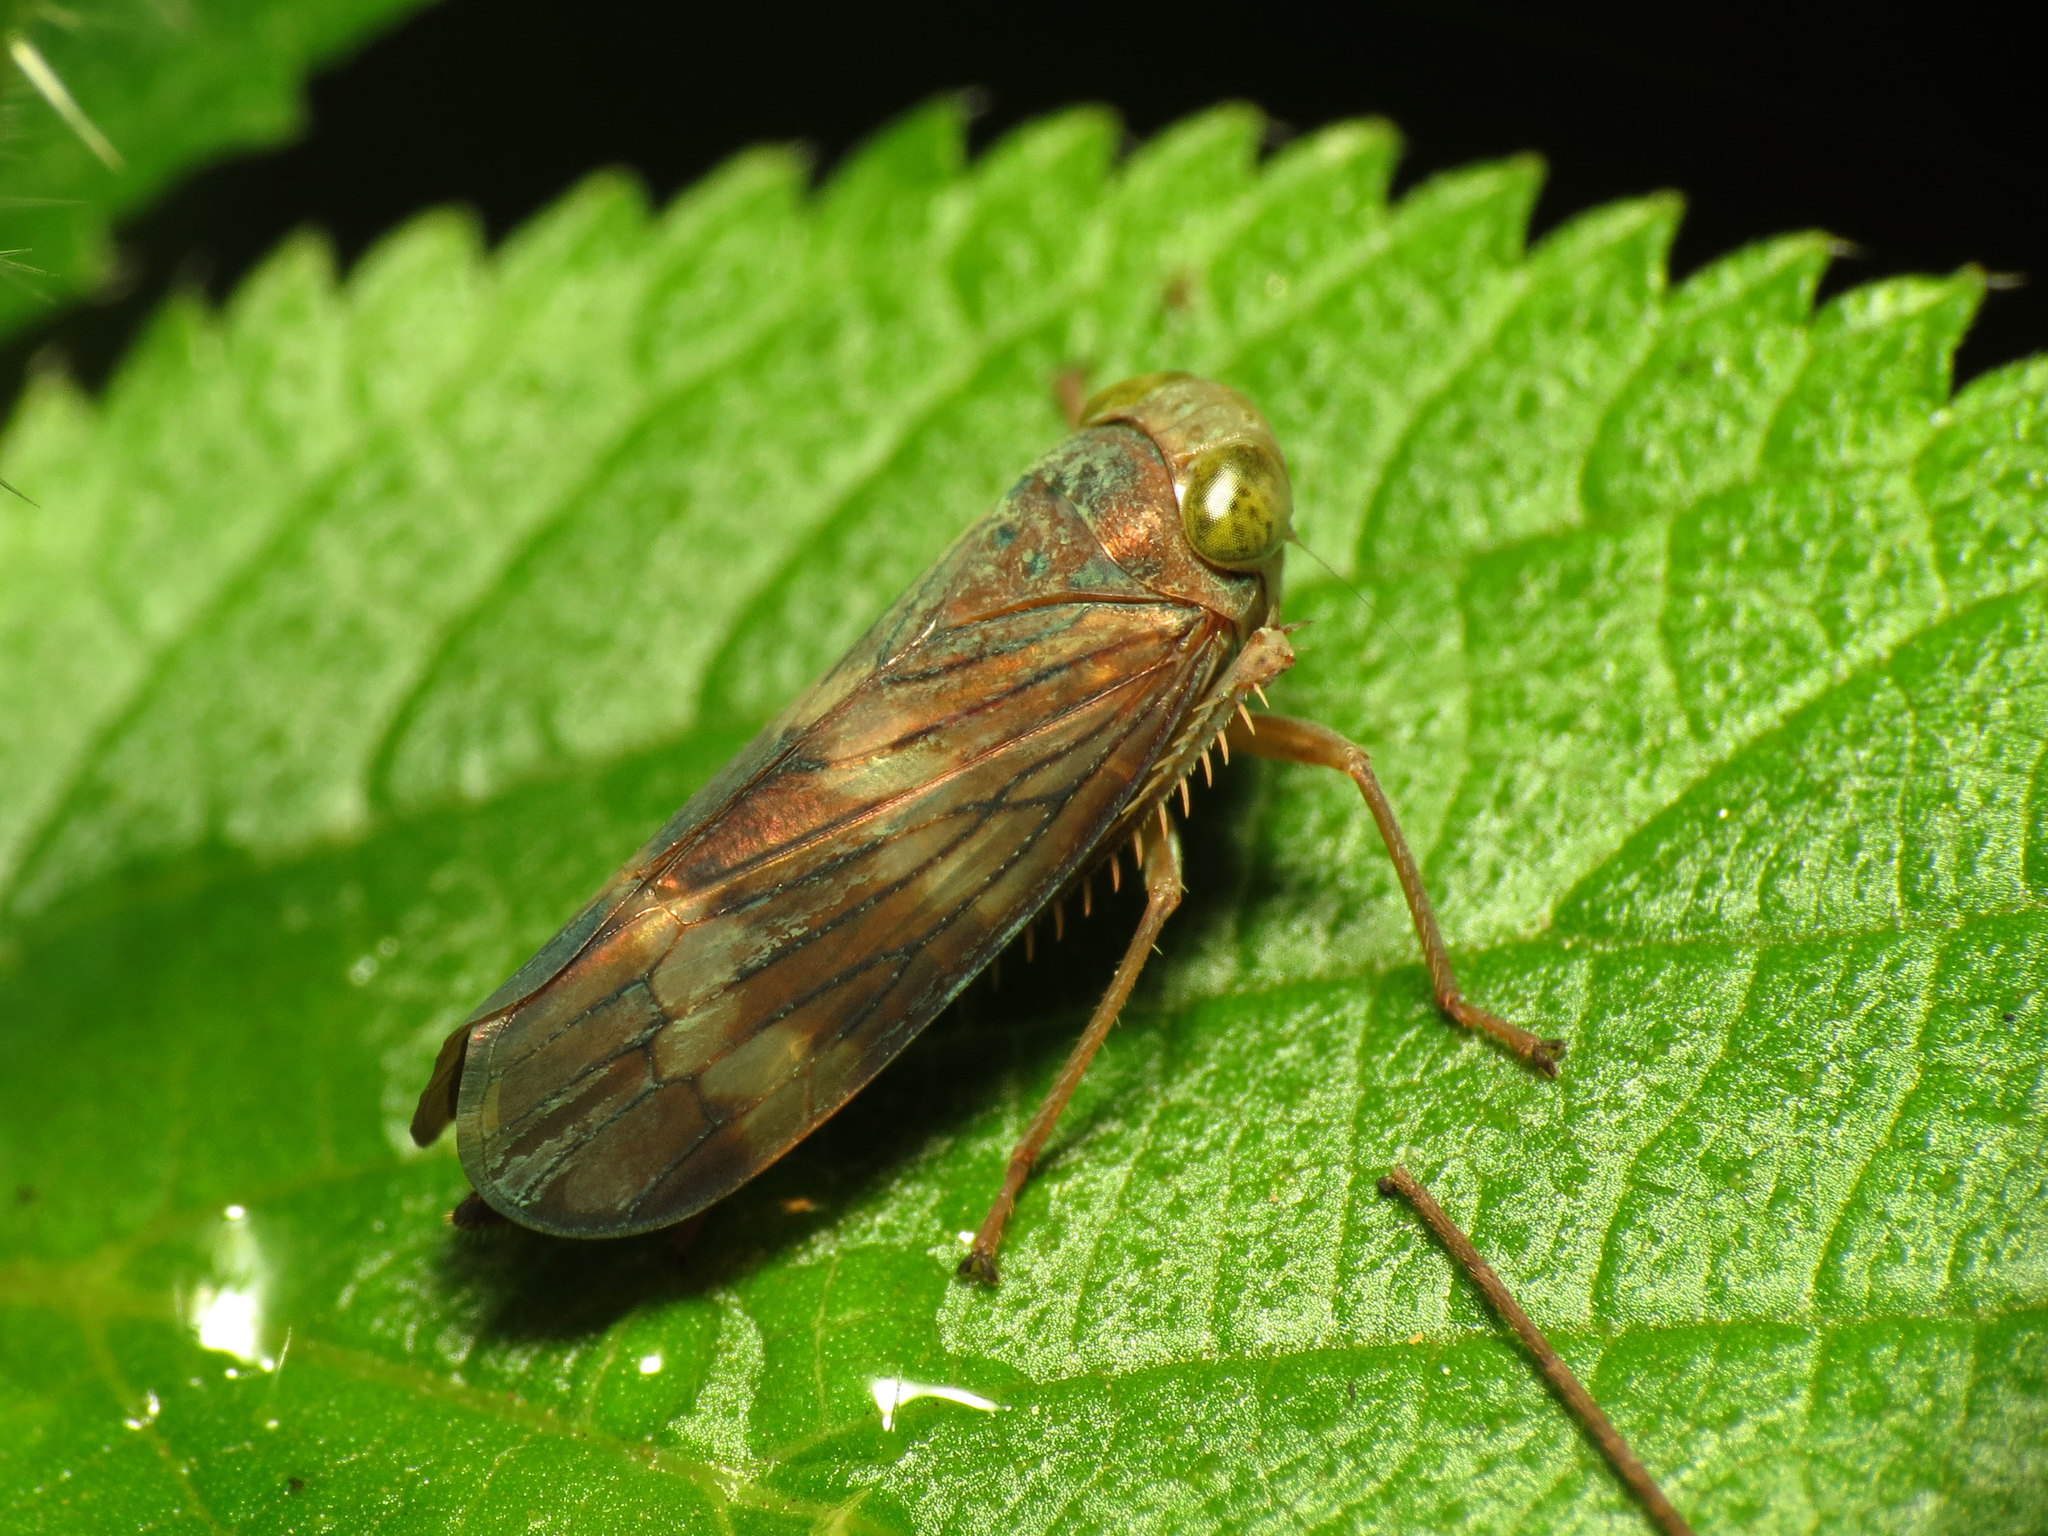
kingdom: Animalia
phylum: Arthropoda
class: Insecta
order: Hemiptera
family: Cicadellidae
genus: Jikradia
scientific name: Jikradia olitoria
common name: Coppery leafhopper
